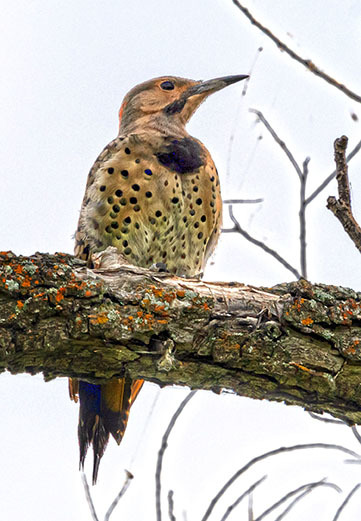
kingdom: Animalia
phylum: Chordata
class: Aves
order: Piciformes
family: Picidae
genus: Colaptes
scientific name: Colaptes auratus
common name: Northern flicker
